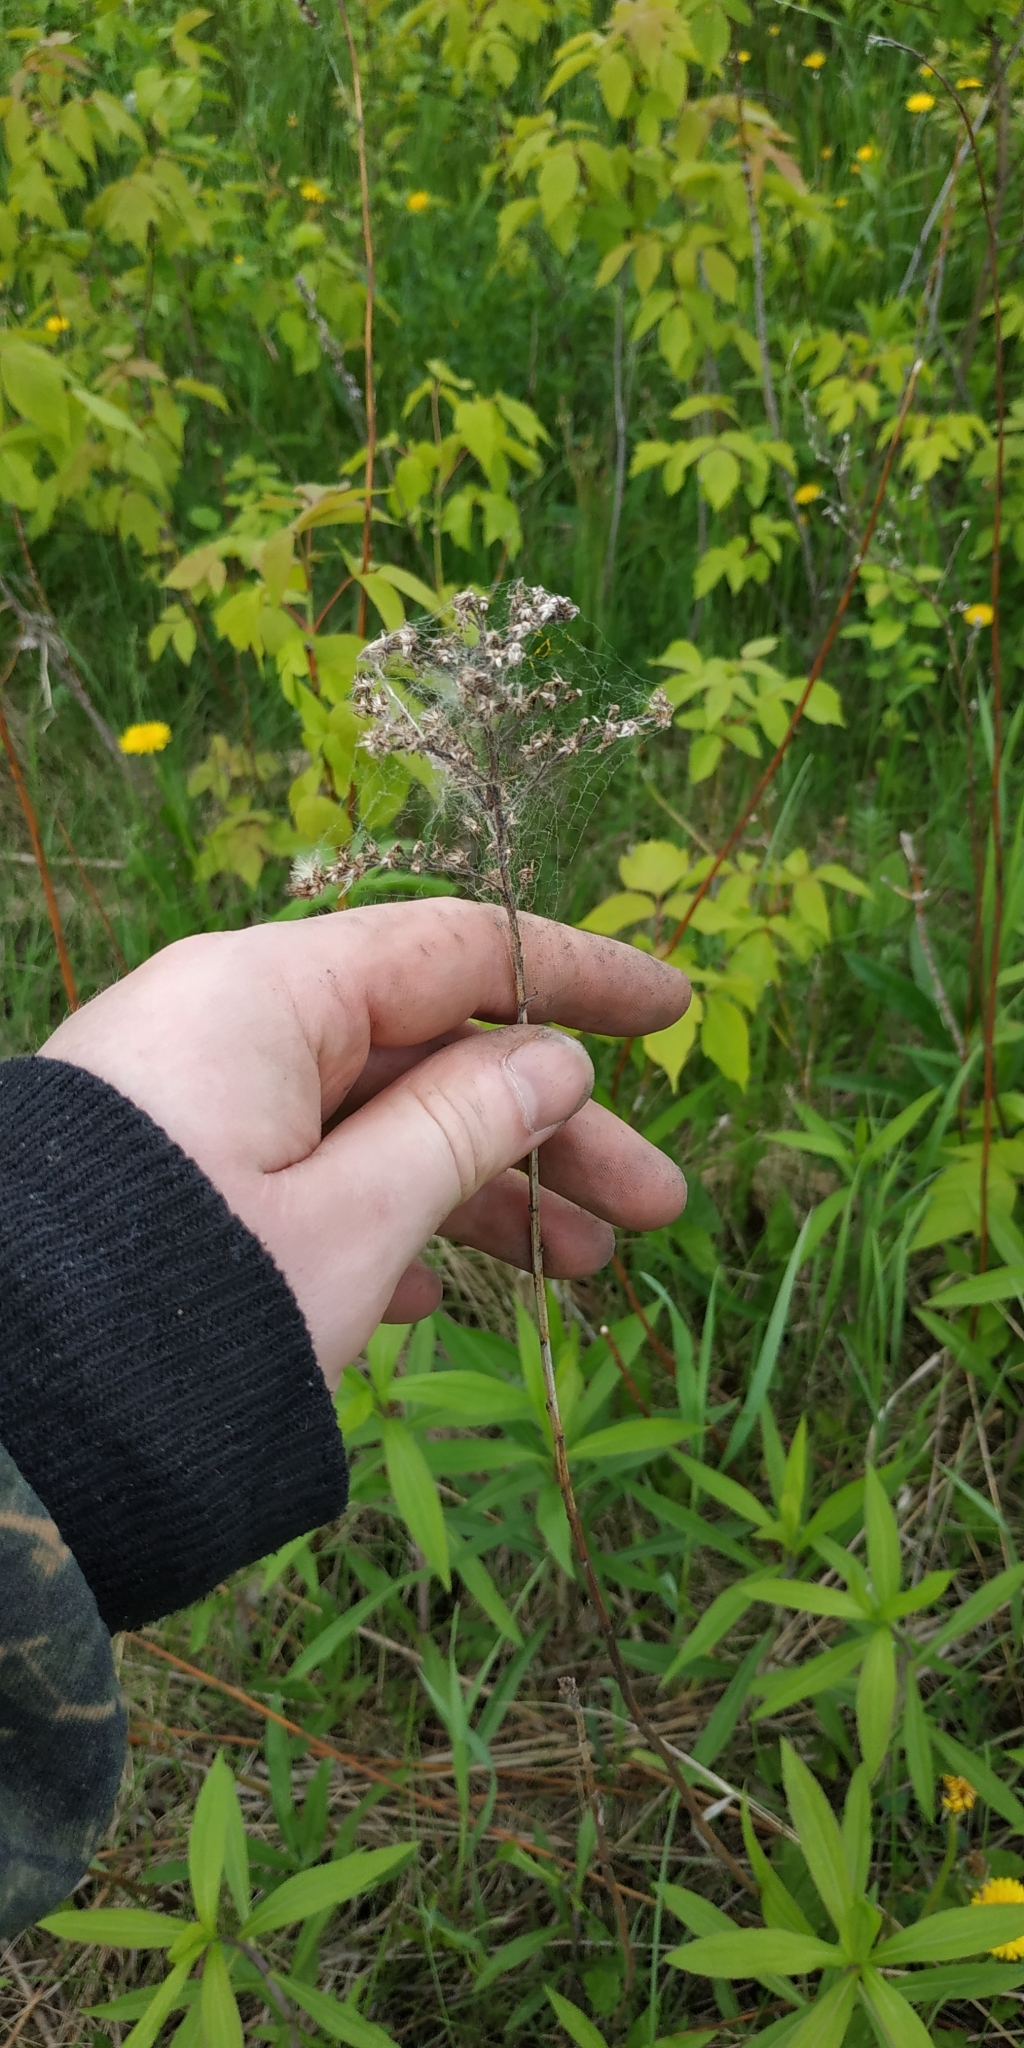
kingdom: Plantae
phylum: Tracheophyta
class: Magnoliopsida
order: Asterales
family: Asteraceae
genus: Solidago
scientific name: Solidago canadensis
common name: Canada goldenrod
